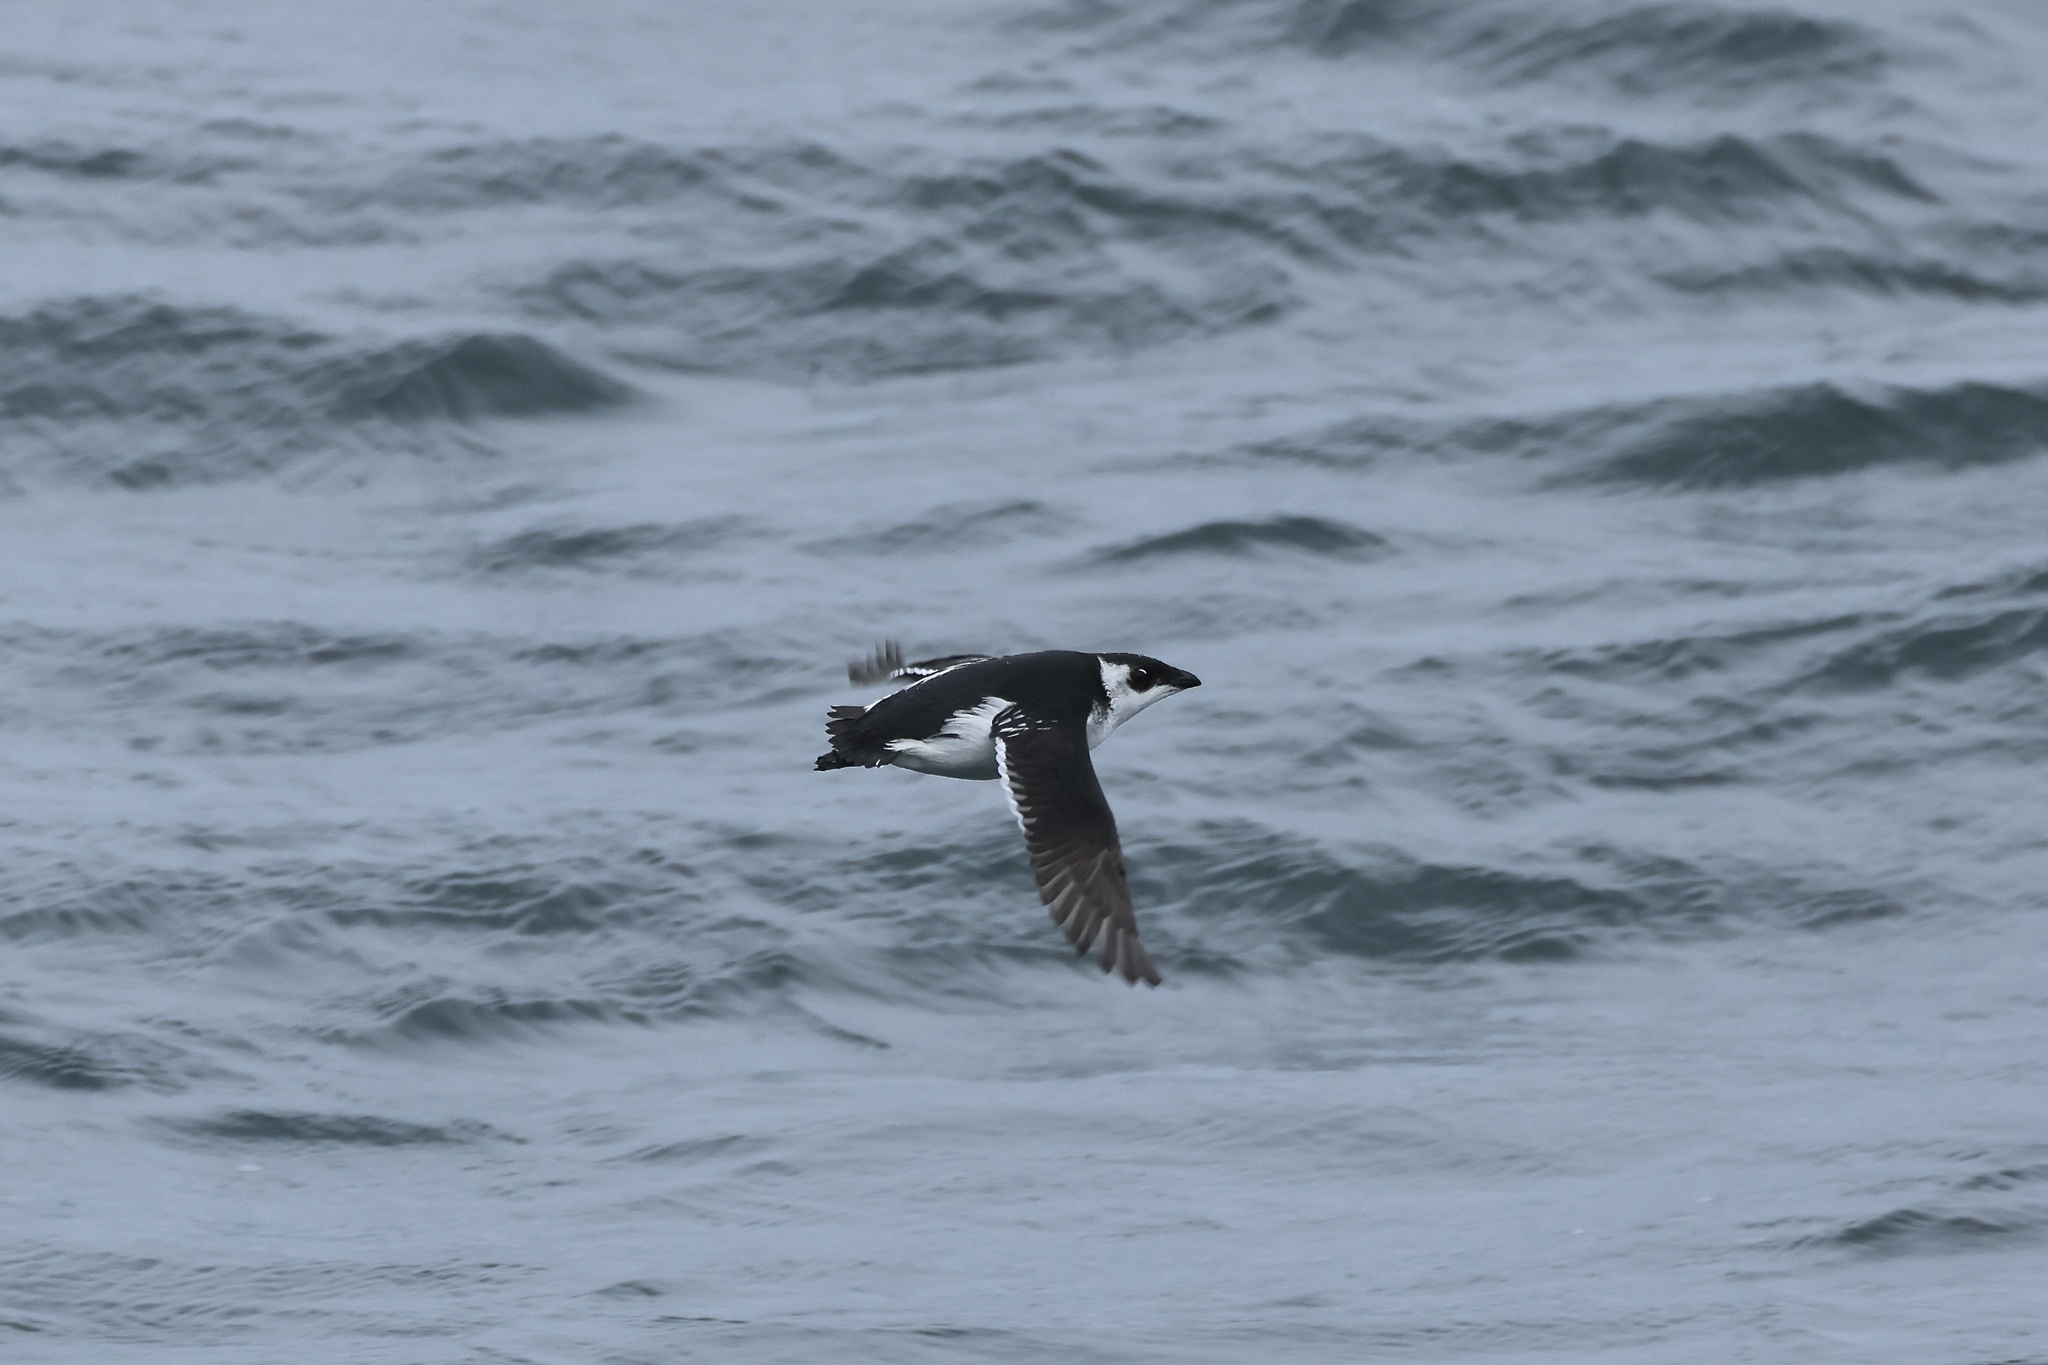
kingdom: Animalia
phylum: Chordata
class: Aves
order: Charadriiformes
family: Alcidae
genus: Alle
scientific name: Alle alle
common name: Little auk
